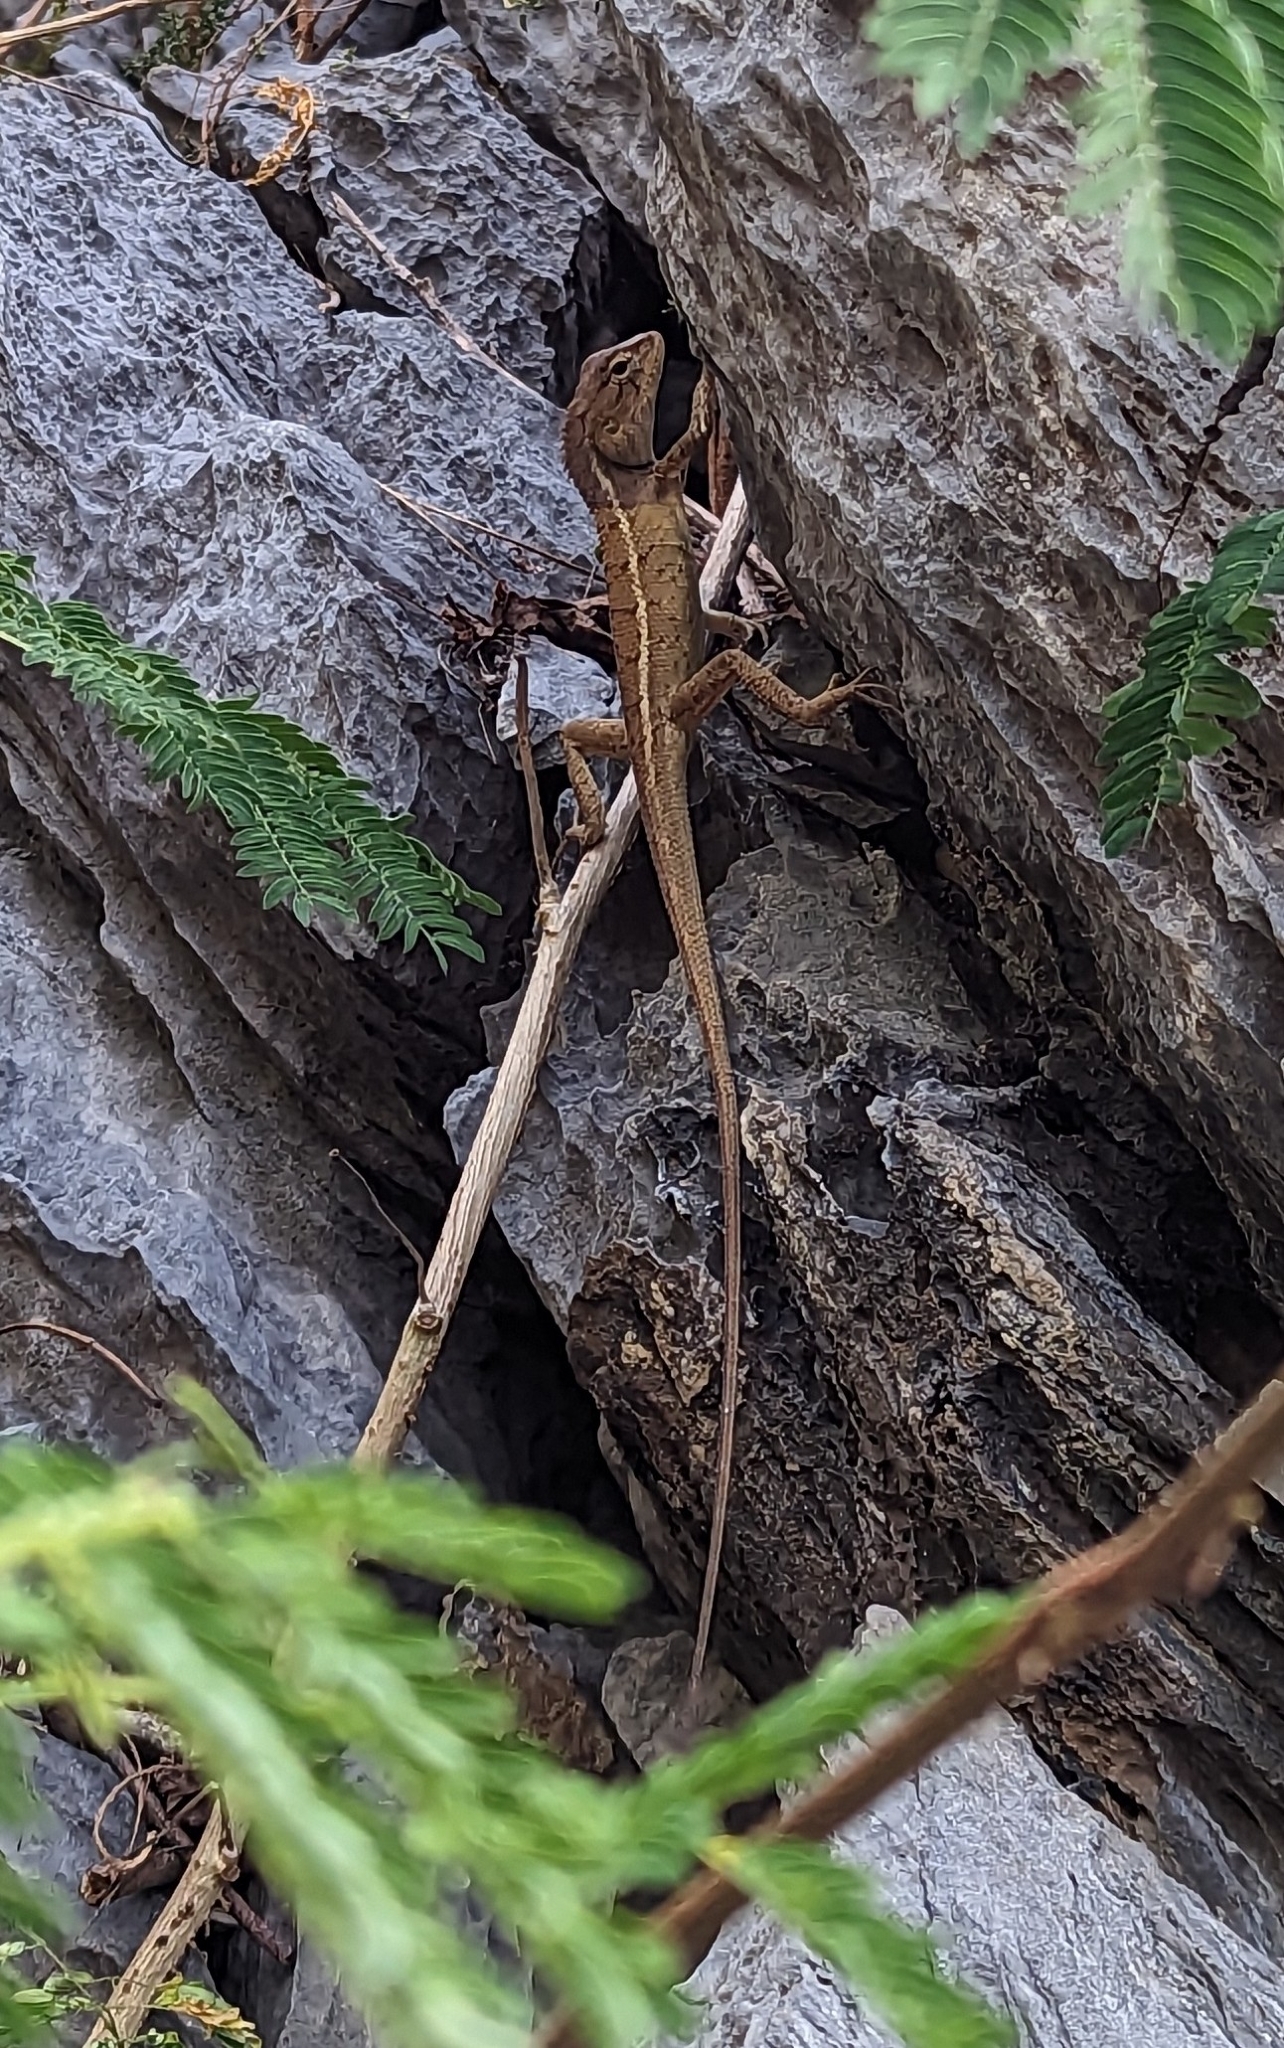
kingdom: Animalia
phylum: Chordata
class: Squamata
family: Agamidae
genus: Calotes
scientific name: Calotes versicolor
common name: Oriental garden lizard
